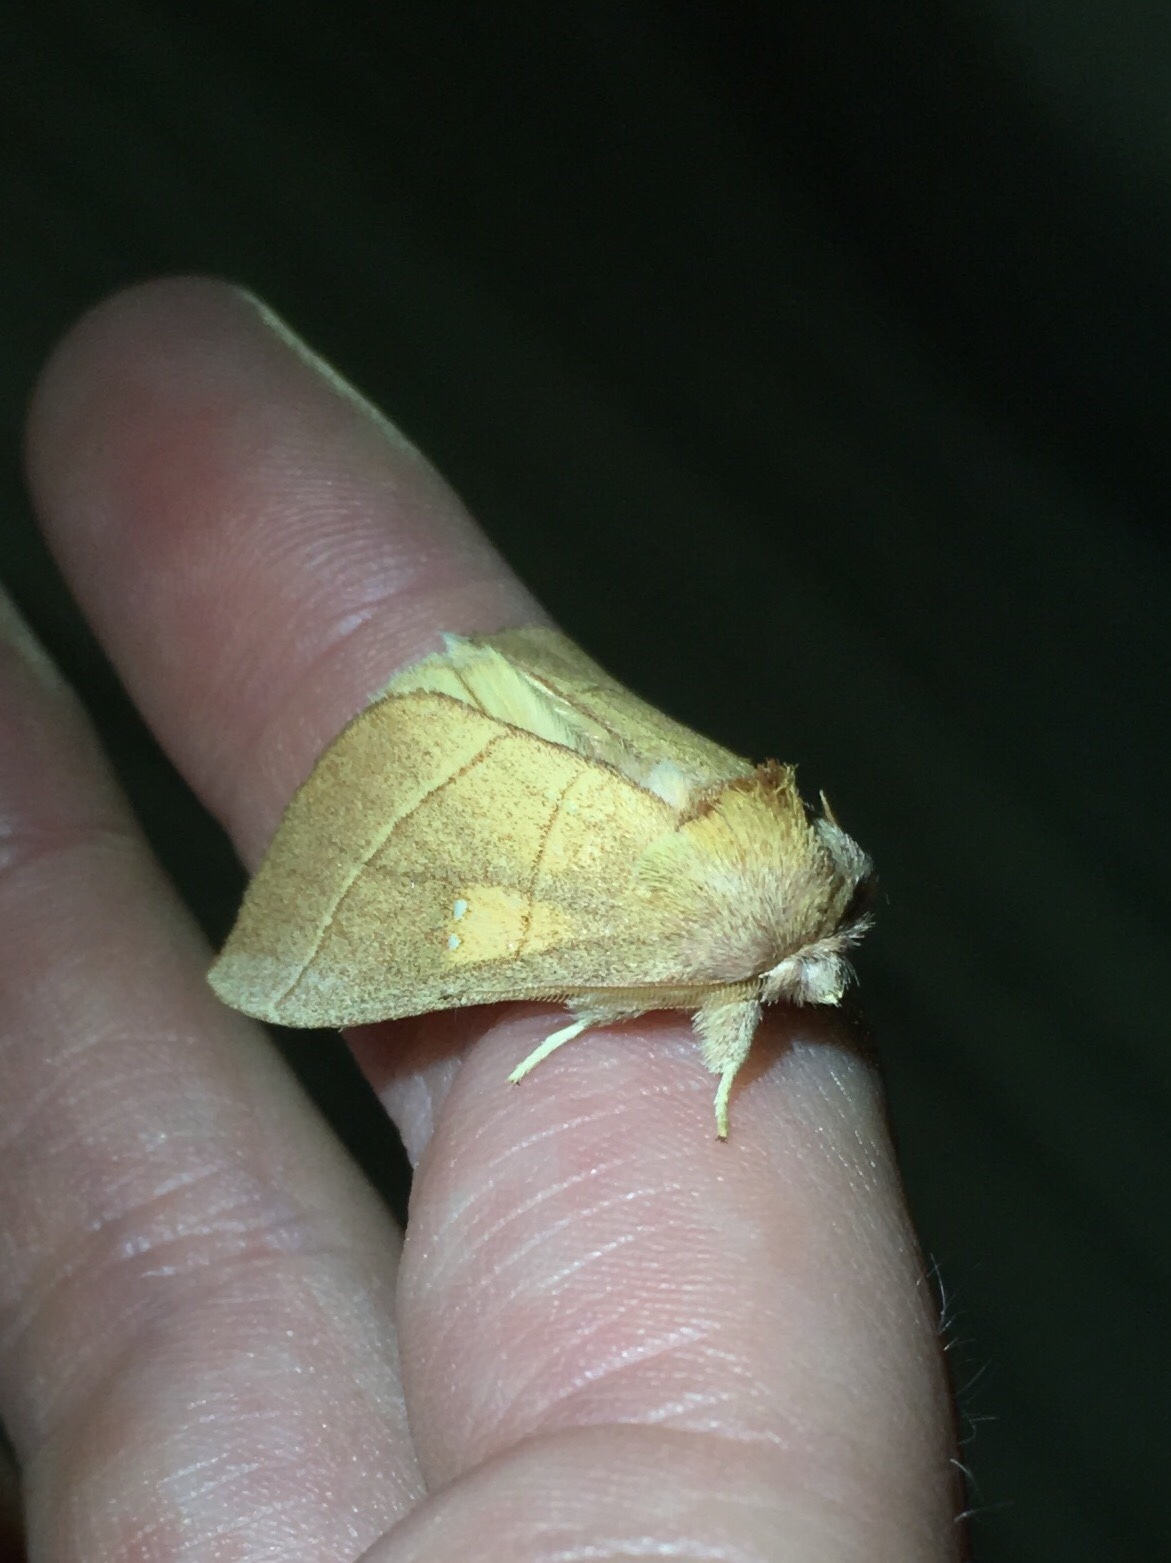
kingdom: Animalia
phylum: Arthropoda
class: Insecta
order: Lepidoptera
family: Notodontidae
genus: Nadata
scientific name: Nadata gibbosa
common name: White-dotted prominent
